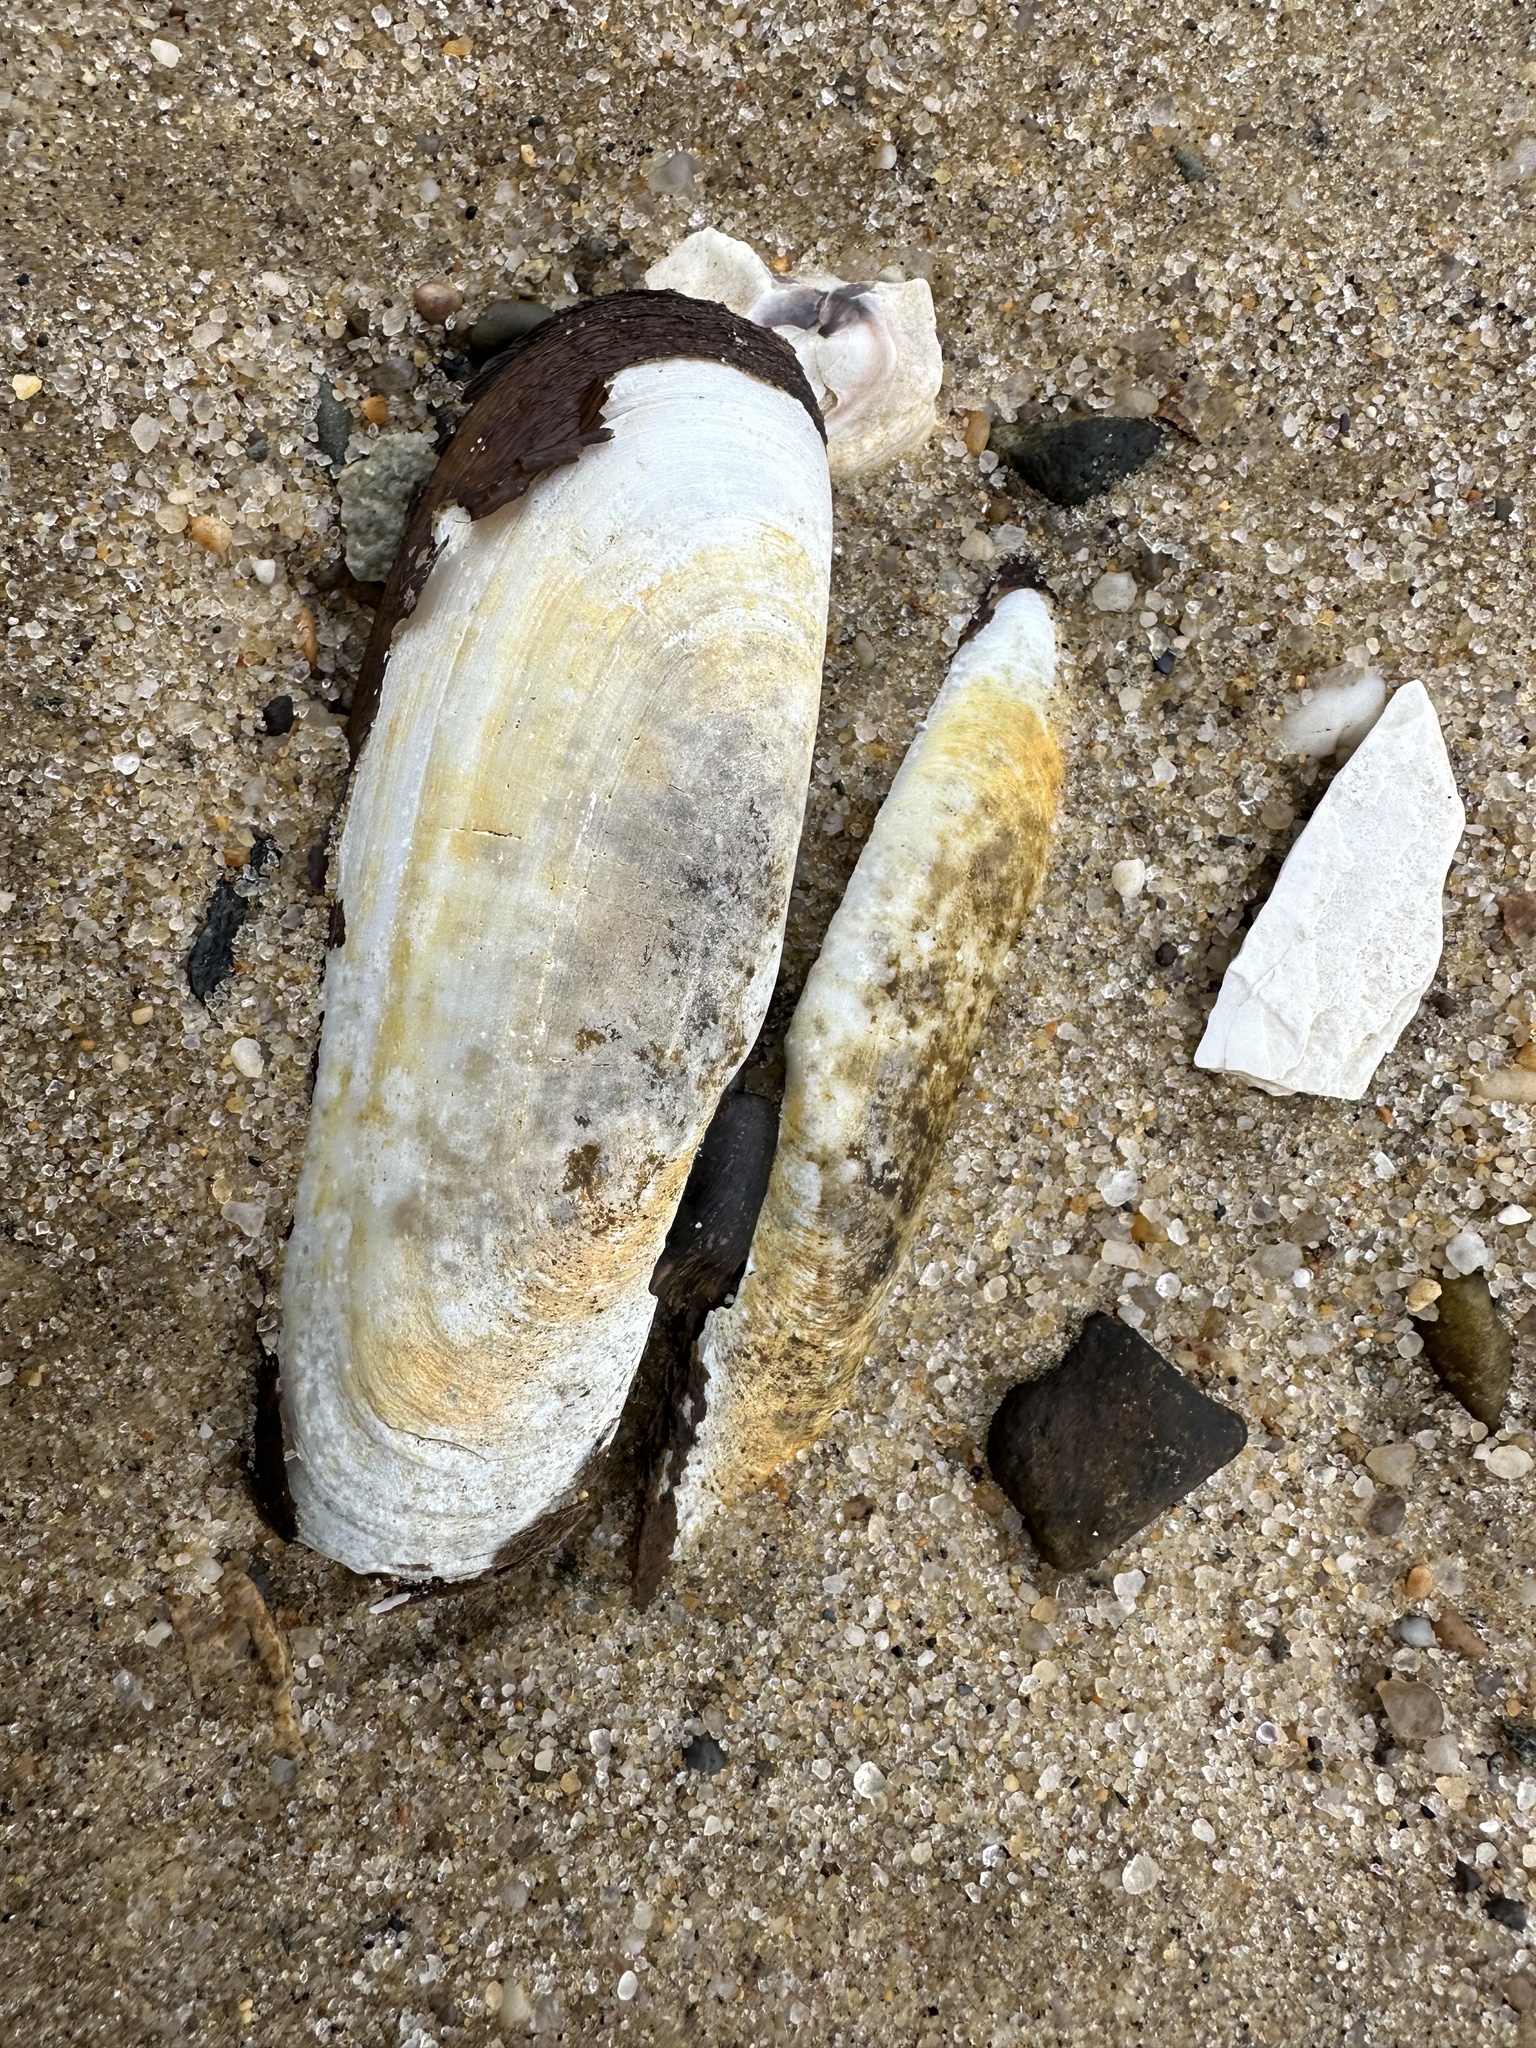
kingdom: Animalia
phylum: Mollusca
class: Bivalvia
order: Cardiida
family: Solecurtidae
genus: Tagelus
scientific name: Tagelus plebeius
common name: Stout tagelus
